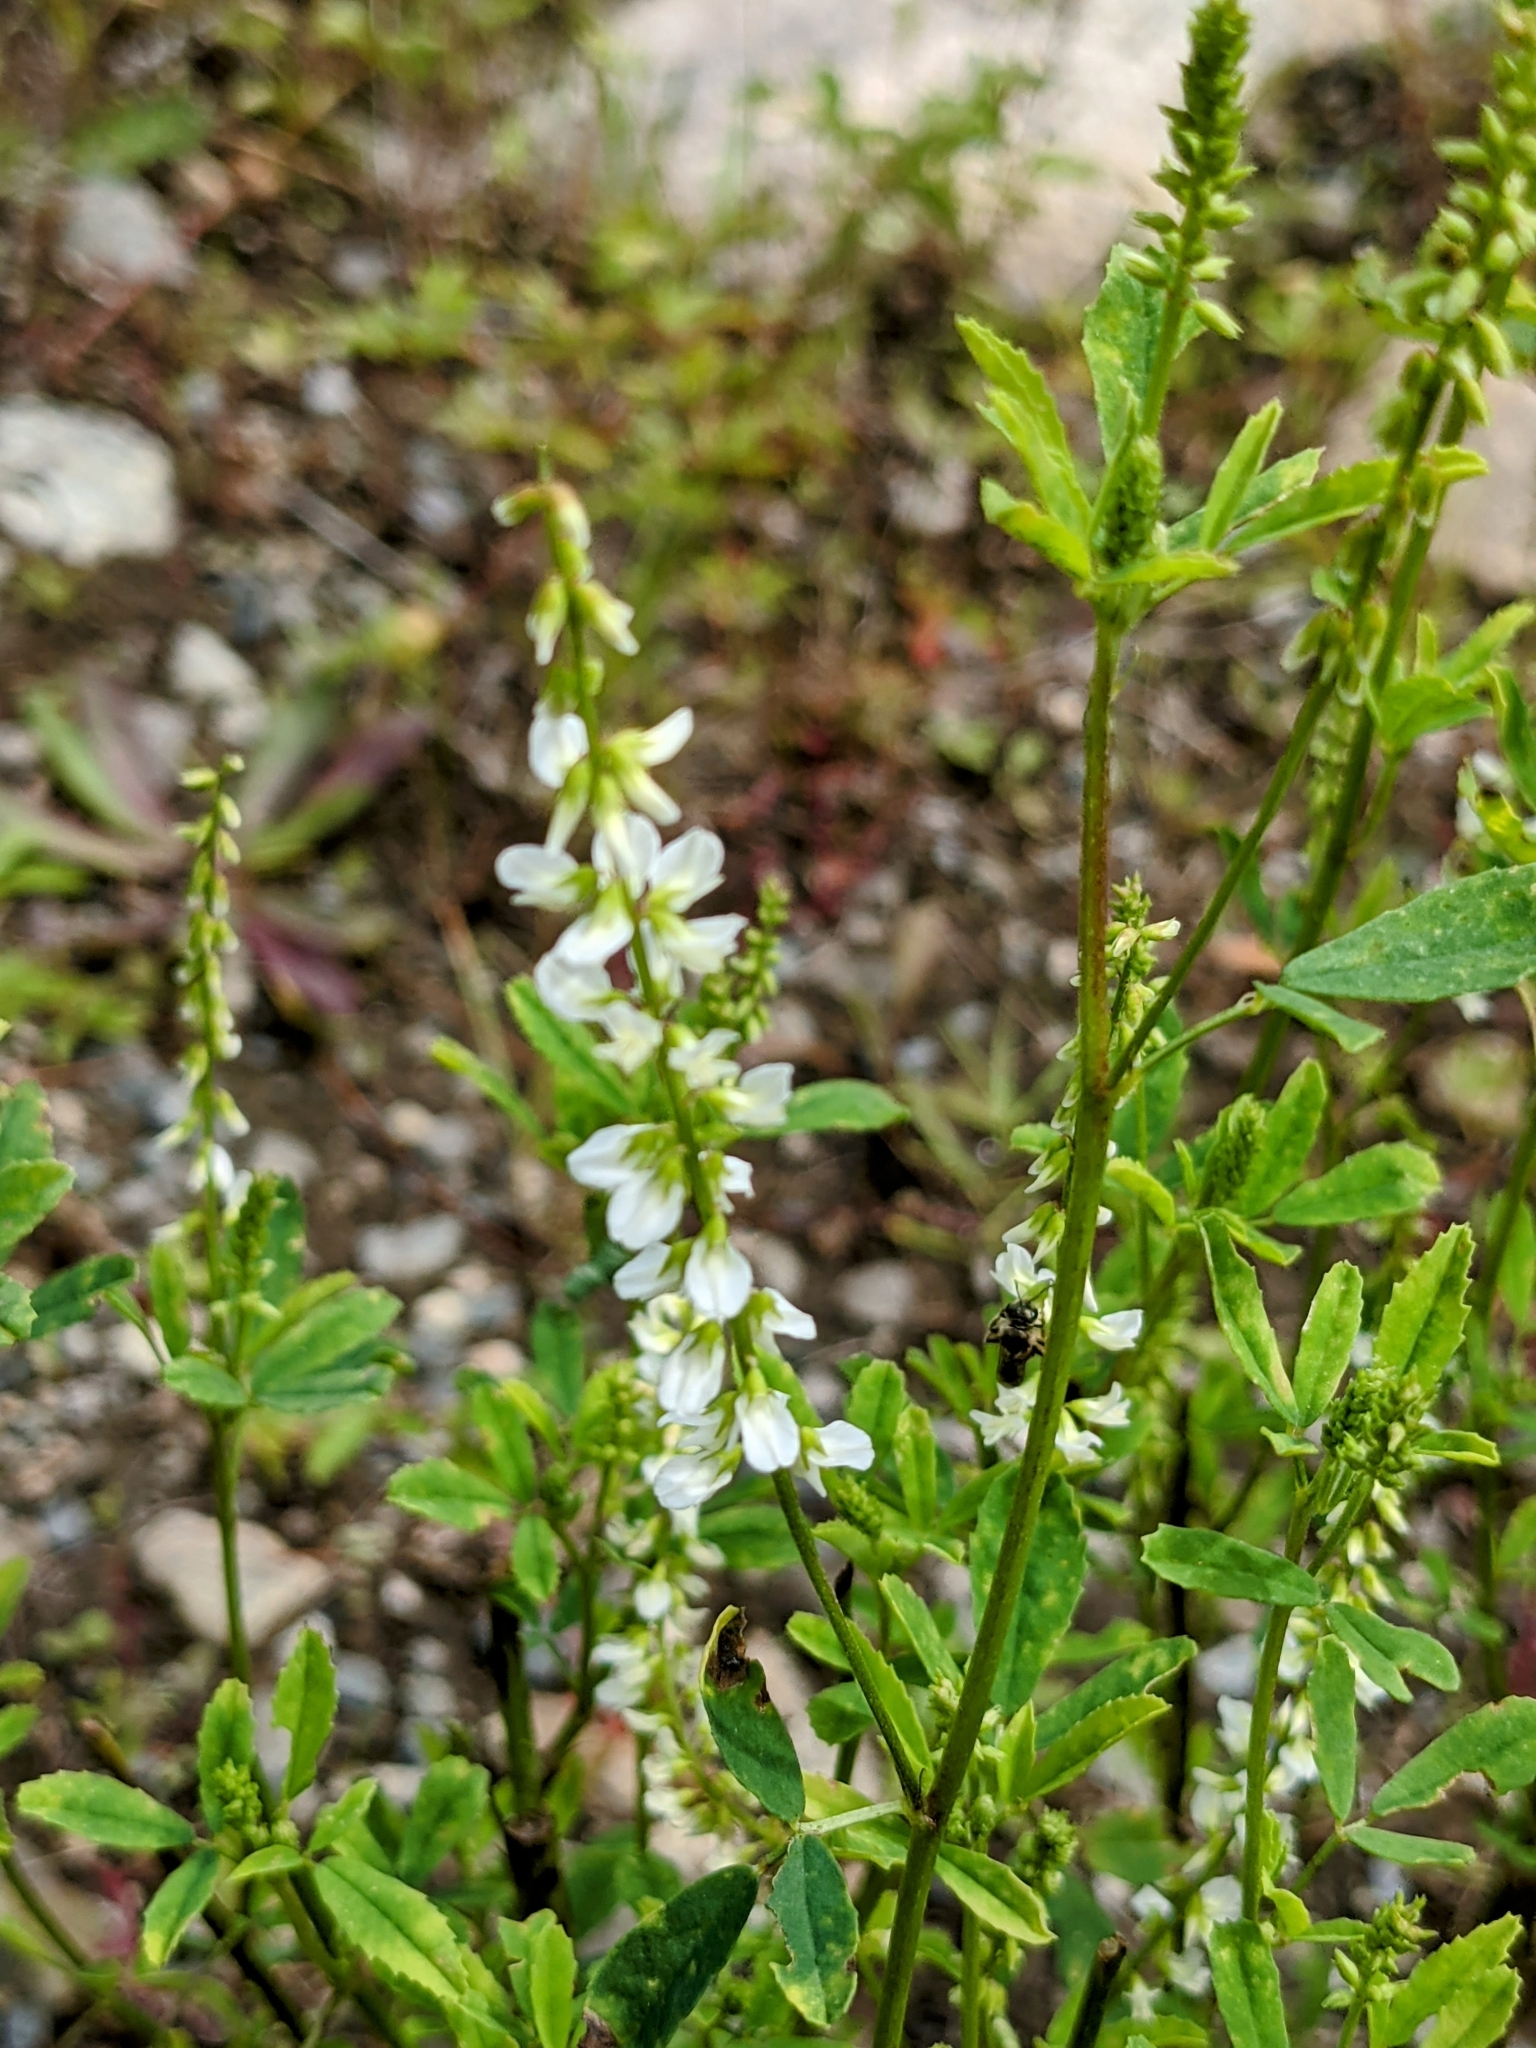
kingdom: Plantae
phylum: Tracheophyta
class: Magnoliopsida
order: Fabales
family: Fabaceae
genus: Melilotus
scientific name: Melilotus albus
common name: White melilot
